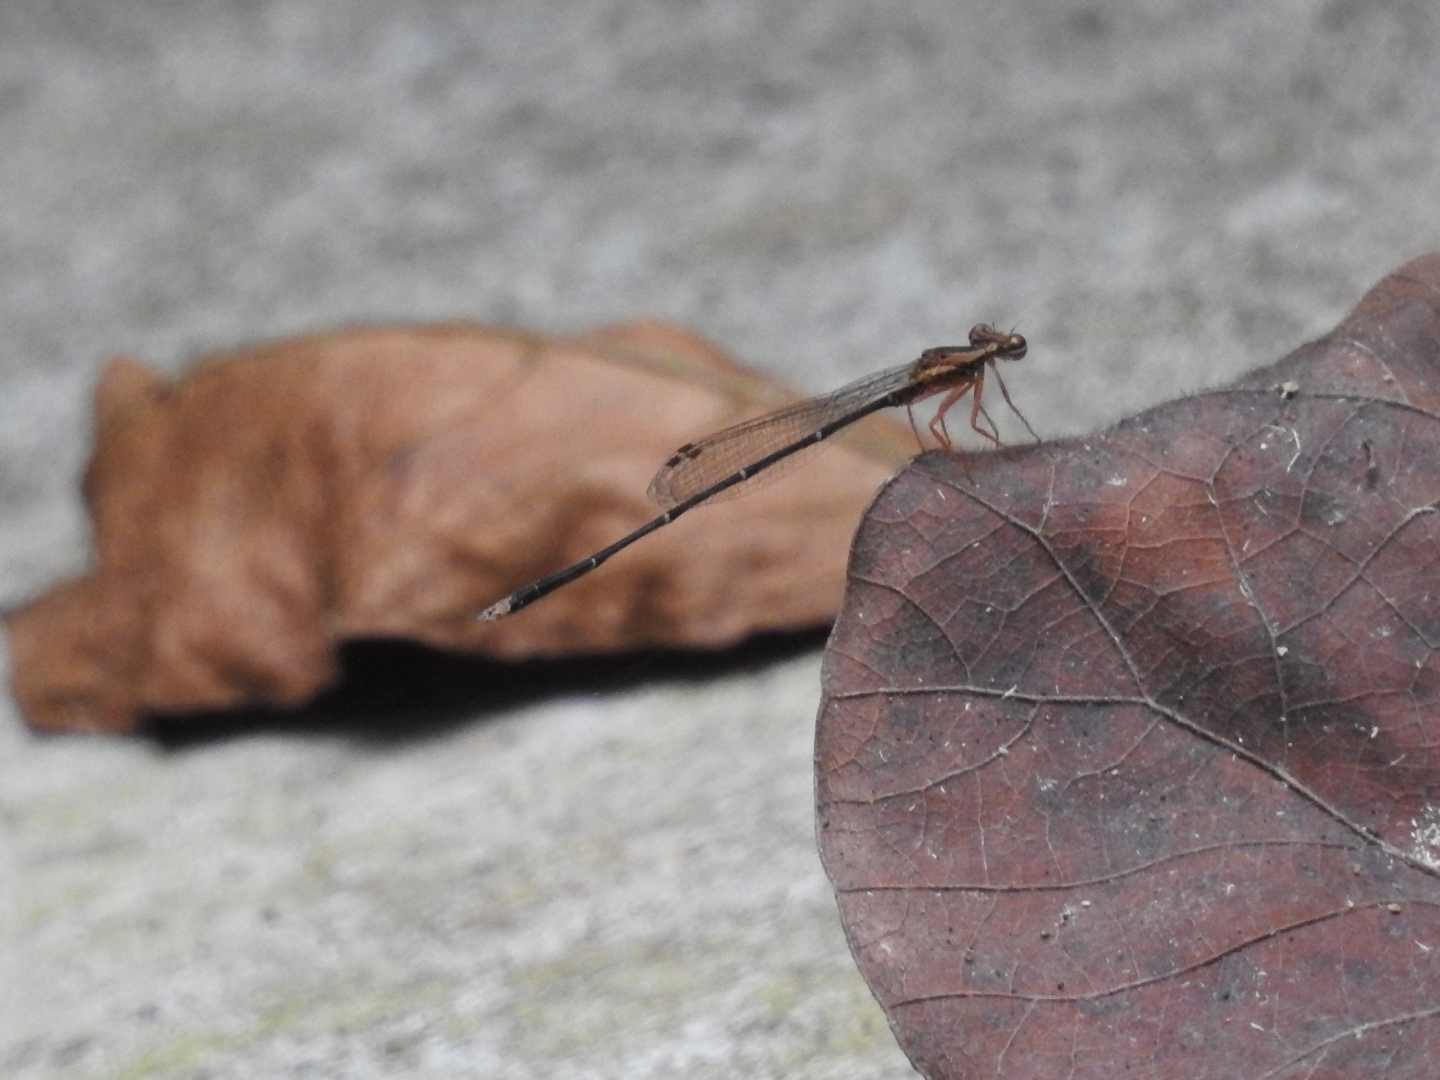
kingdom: Animalia
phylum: Arthropoda
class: Insecta
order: Odonata
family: Platycnemididae
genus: Copera
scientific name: Copera vittata
